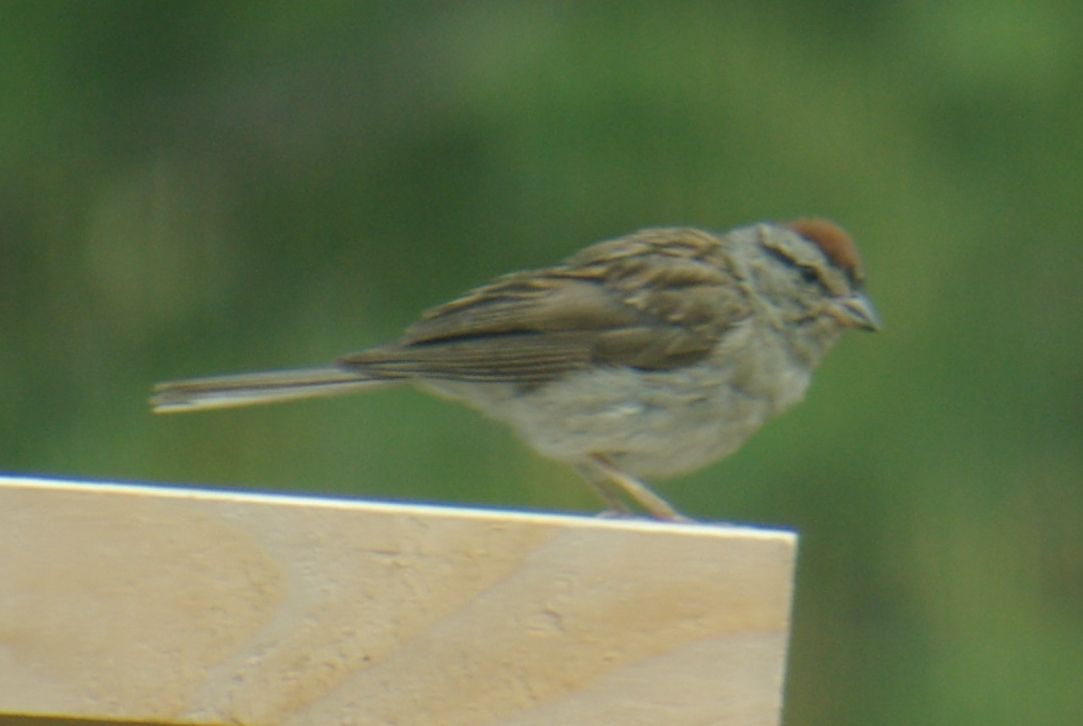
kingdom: Animalia
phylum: Chordata
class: Aves
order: Passeriformes
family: Passerellidae
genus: Spizella
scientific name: Spizella passerina
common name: Chipping sparrow
